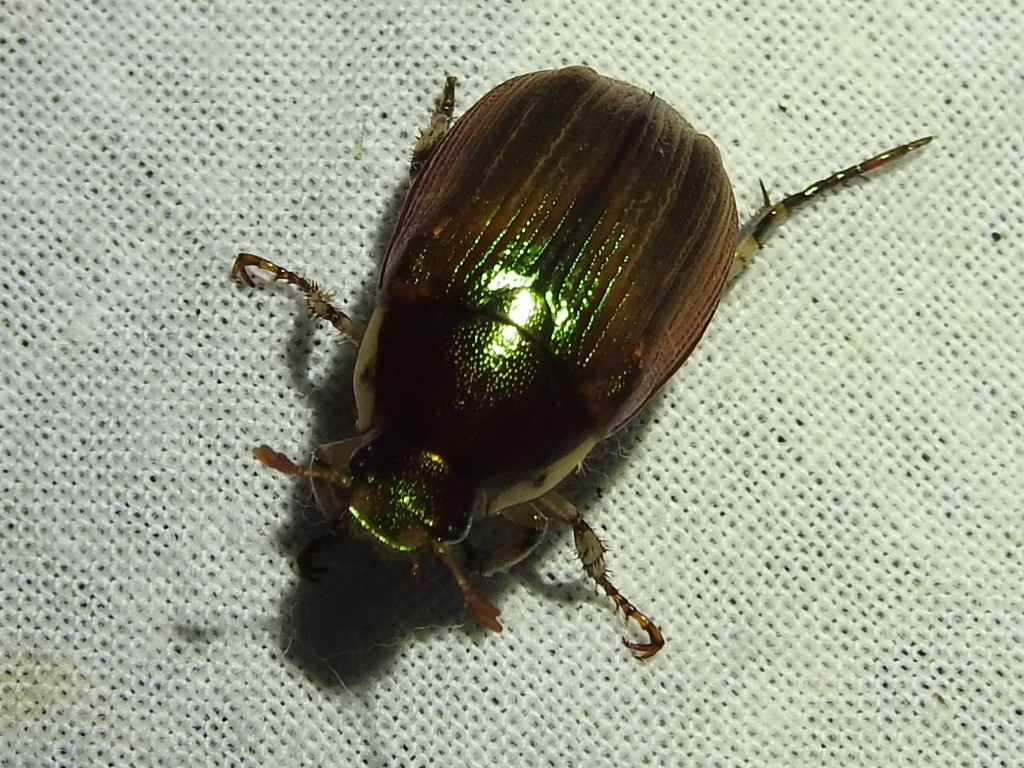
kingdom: Animalia
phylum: Arthropoda
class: Insecta
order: Coleoptera
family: Scarabaeidae
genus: Callistethus
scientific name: Callistethus marginatus
